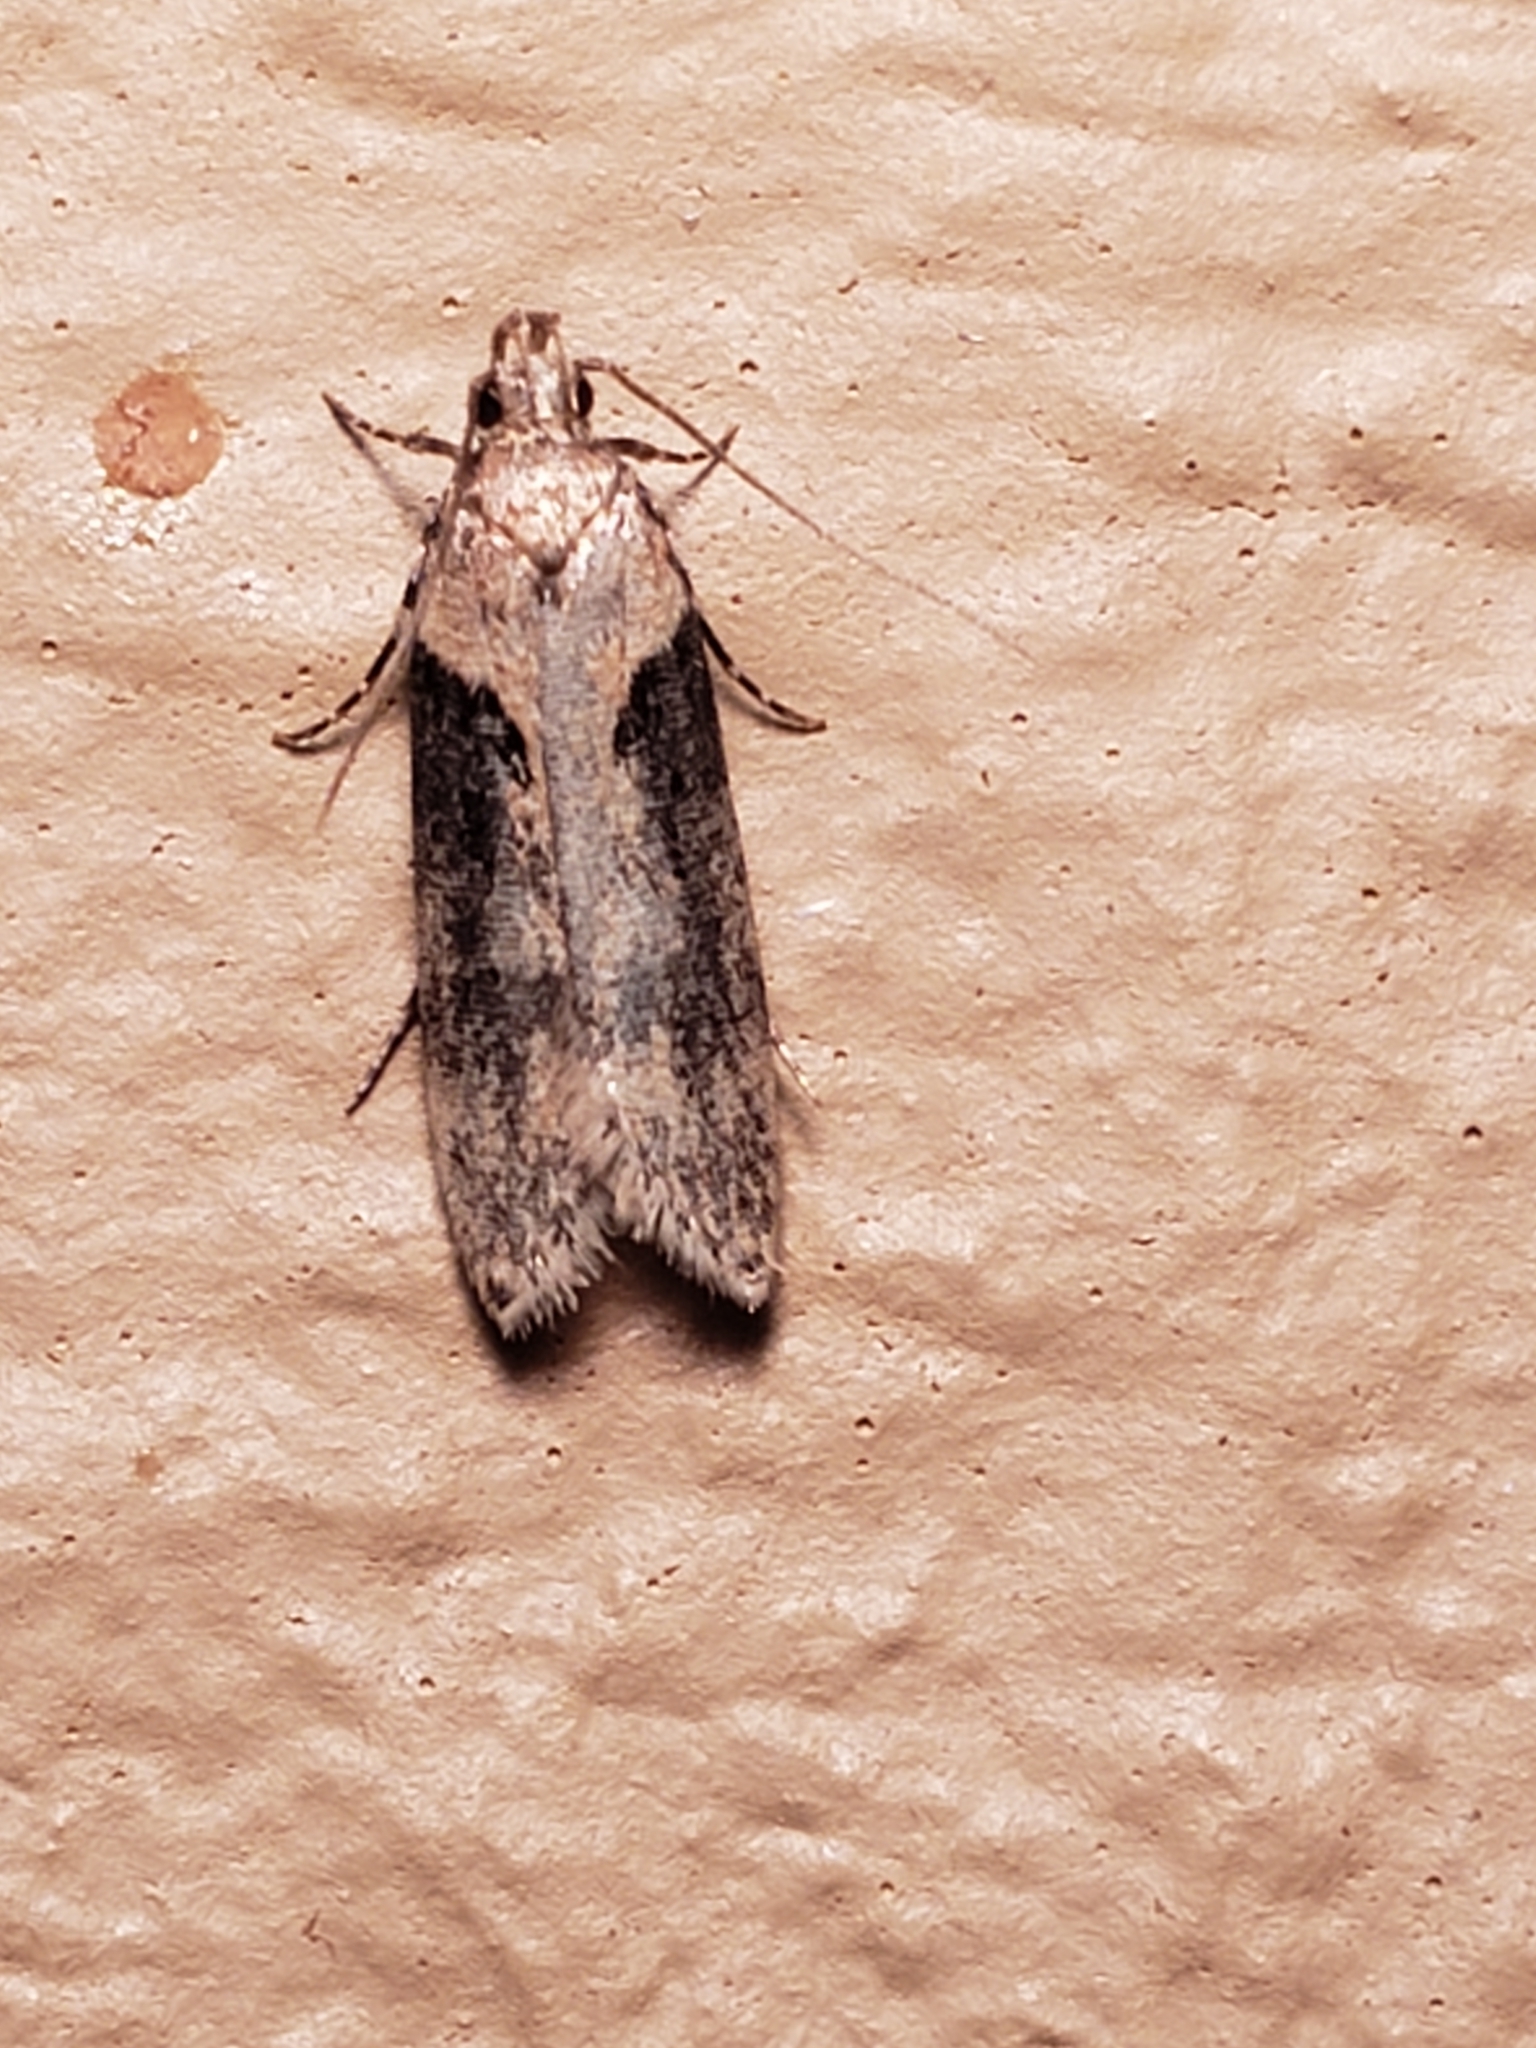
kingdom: Animalia
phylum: Arthropoda
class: Insecta
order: Lepidoptera
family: Gelechiidae
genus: Chionodes
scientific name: Chionodes mediofuscella
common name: Black-smudged chionodes moth
